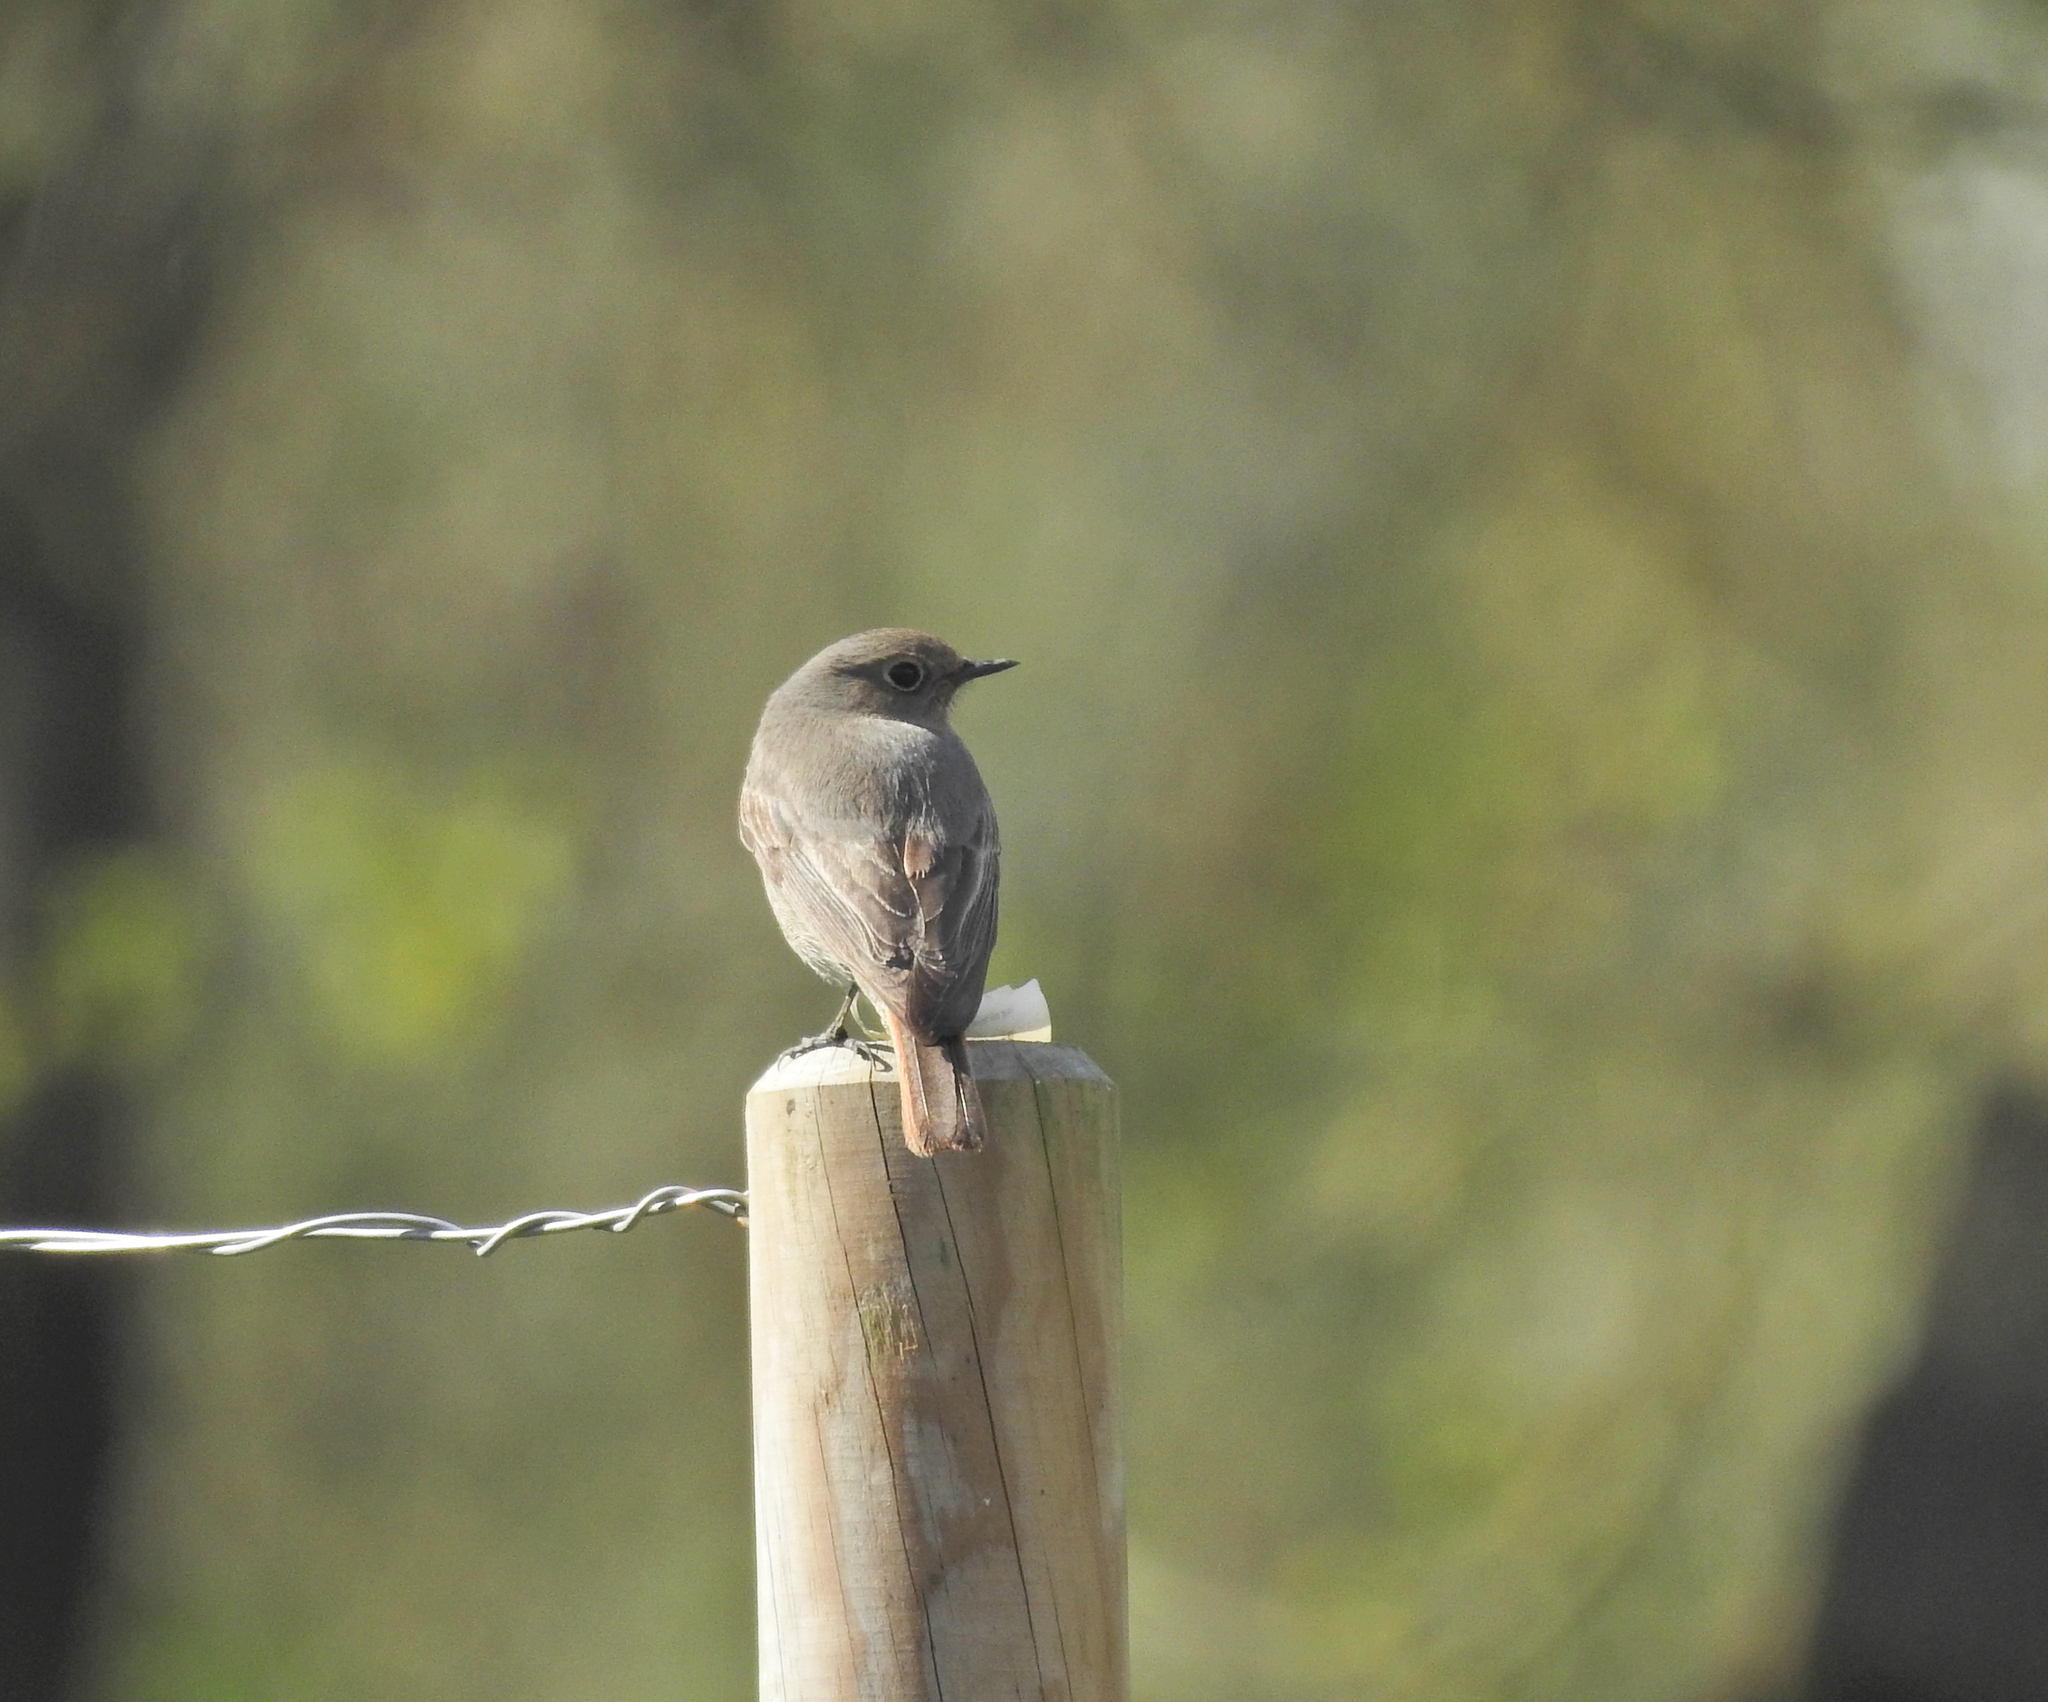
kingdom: Animalia
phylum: Chordata
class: Aves
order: Passeriformes
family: Muscicapidae
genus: Phoenicurus
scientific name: Phoenicurus ochruros
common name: Black redstart
